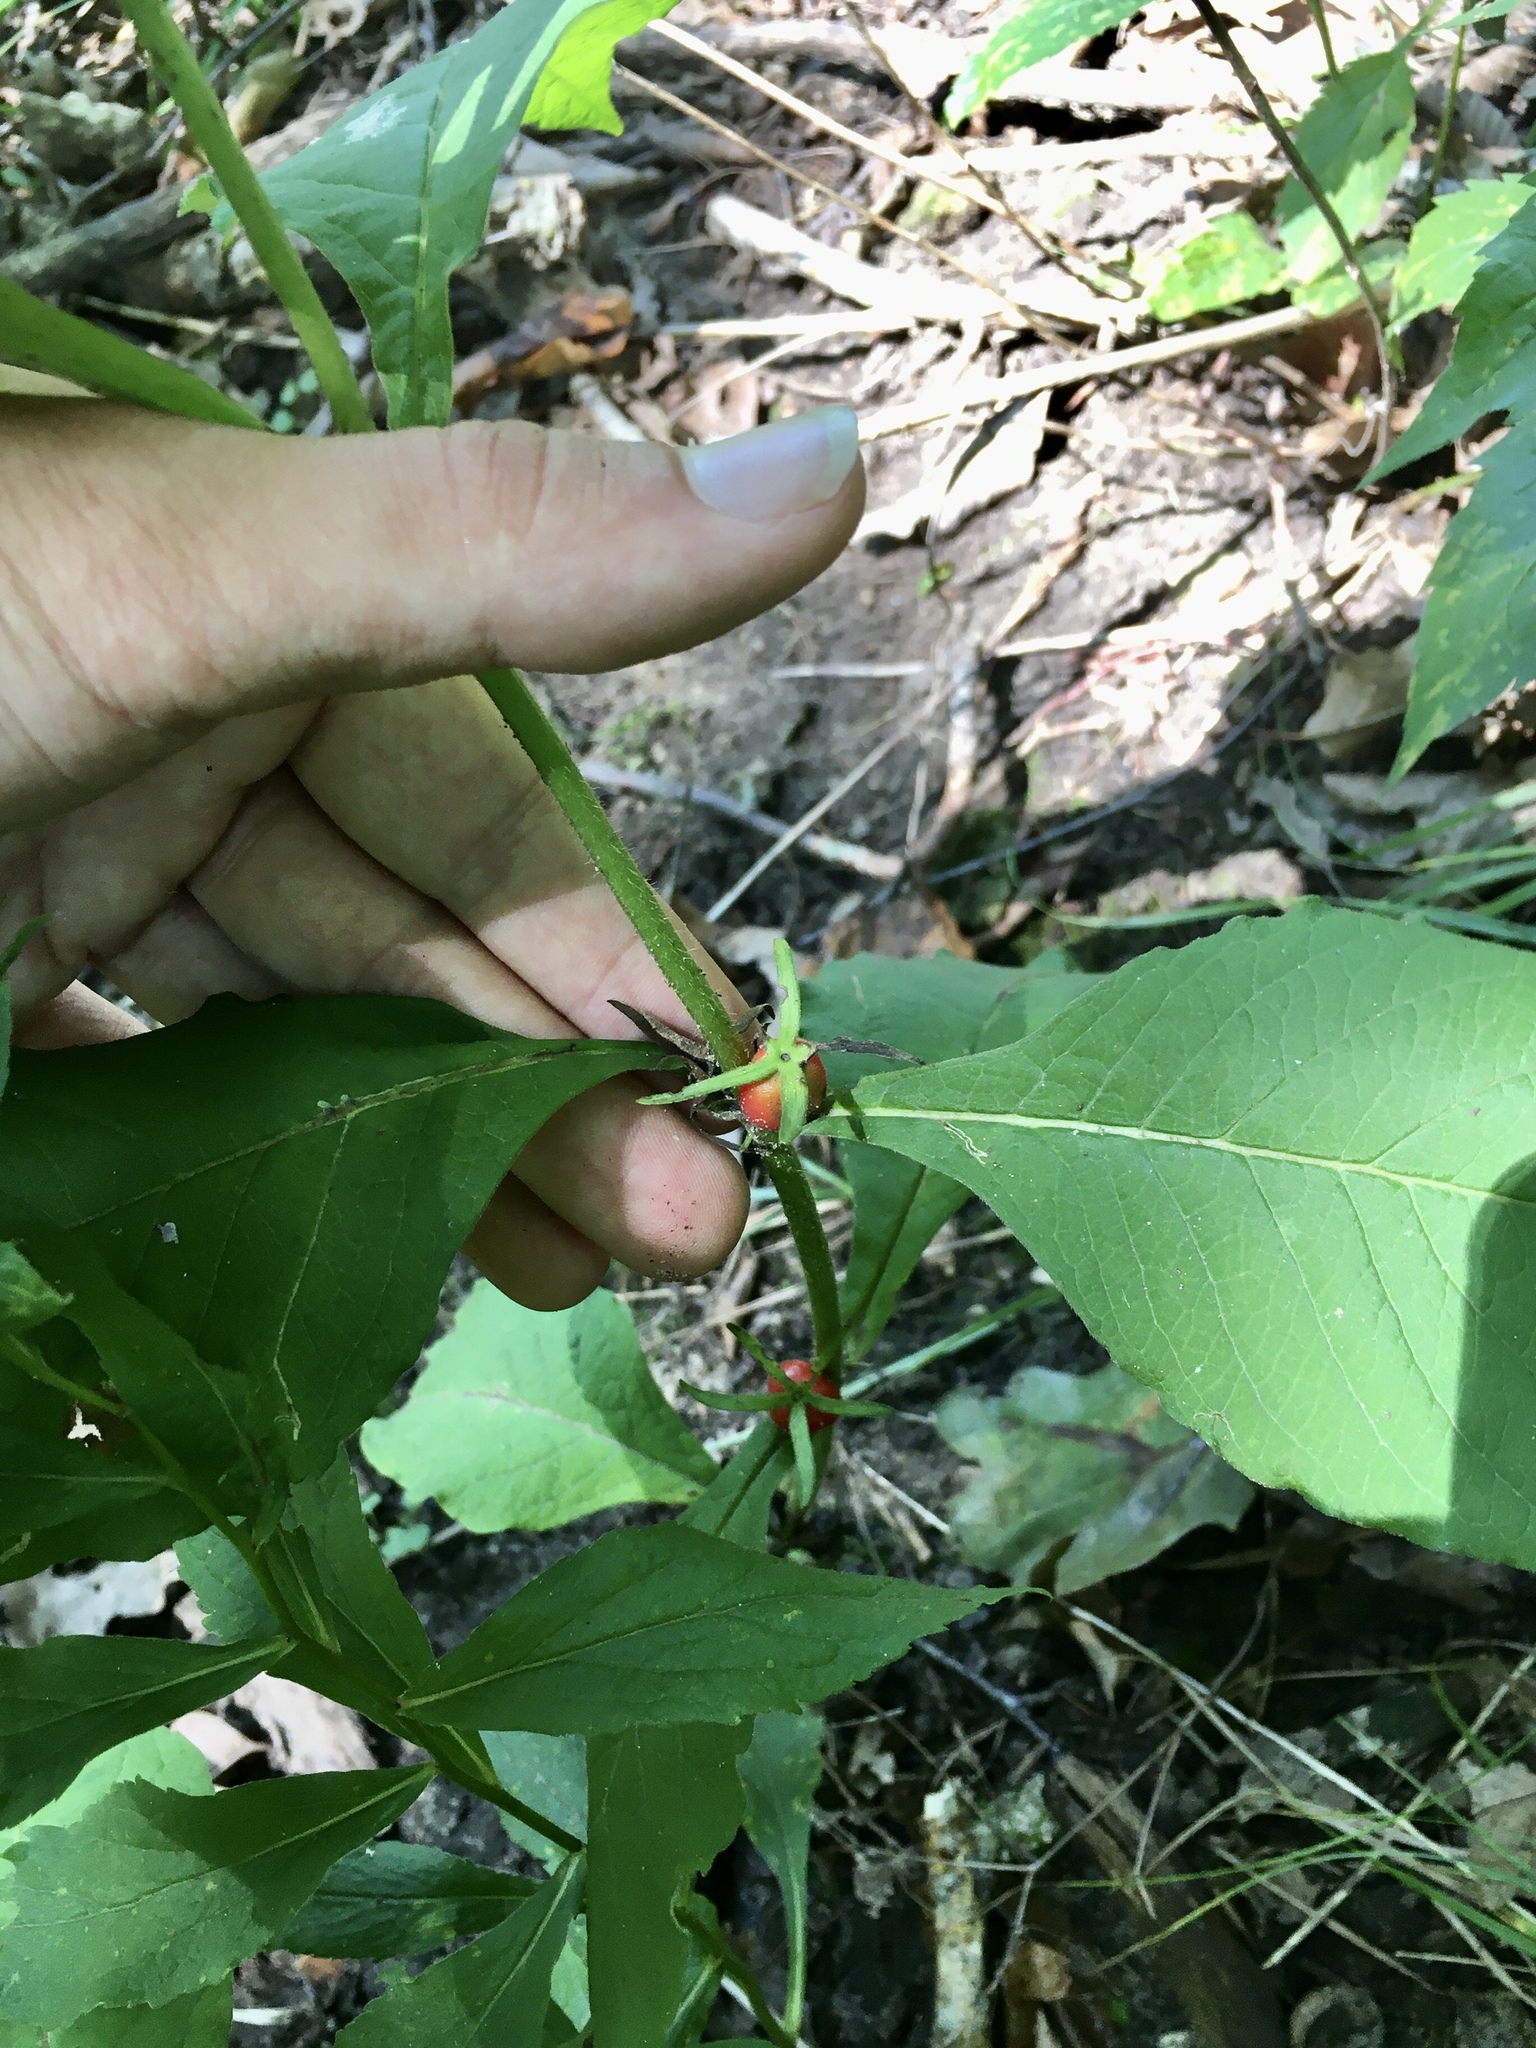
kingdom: Plantae
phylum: Tracheophyta
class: Magnoliopsida
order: Dipsacales
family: Caprifoliaceae
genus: Triosteum
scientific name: Triosteum aurantiacum
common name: Coffee tinker's-weed
